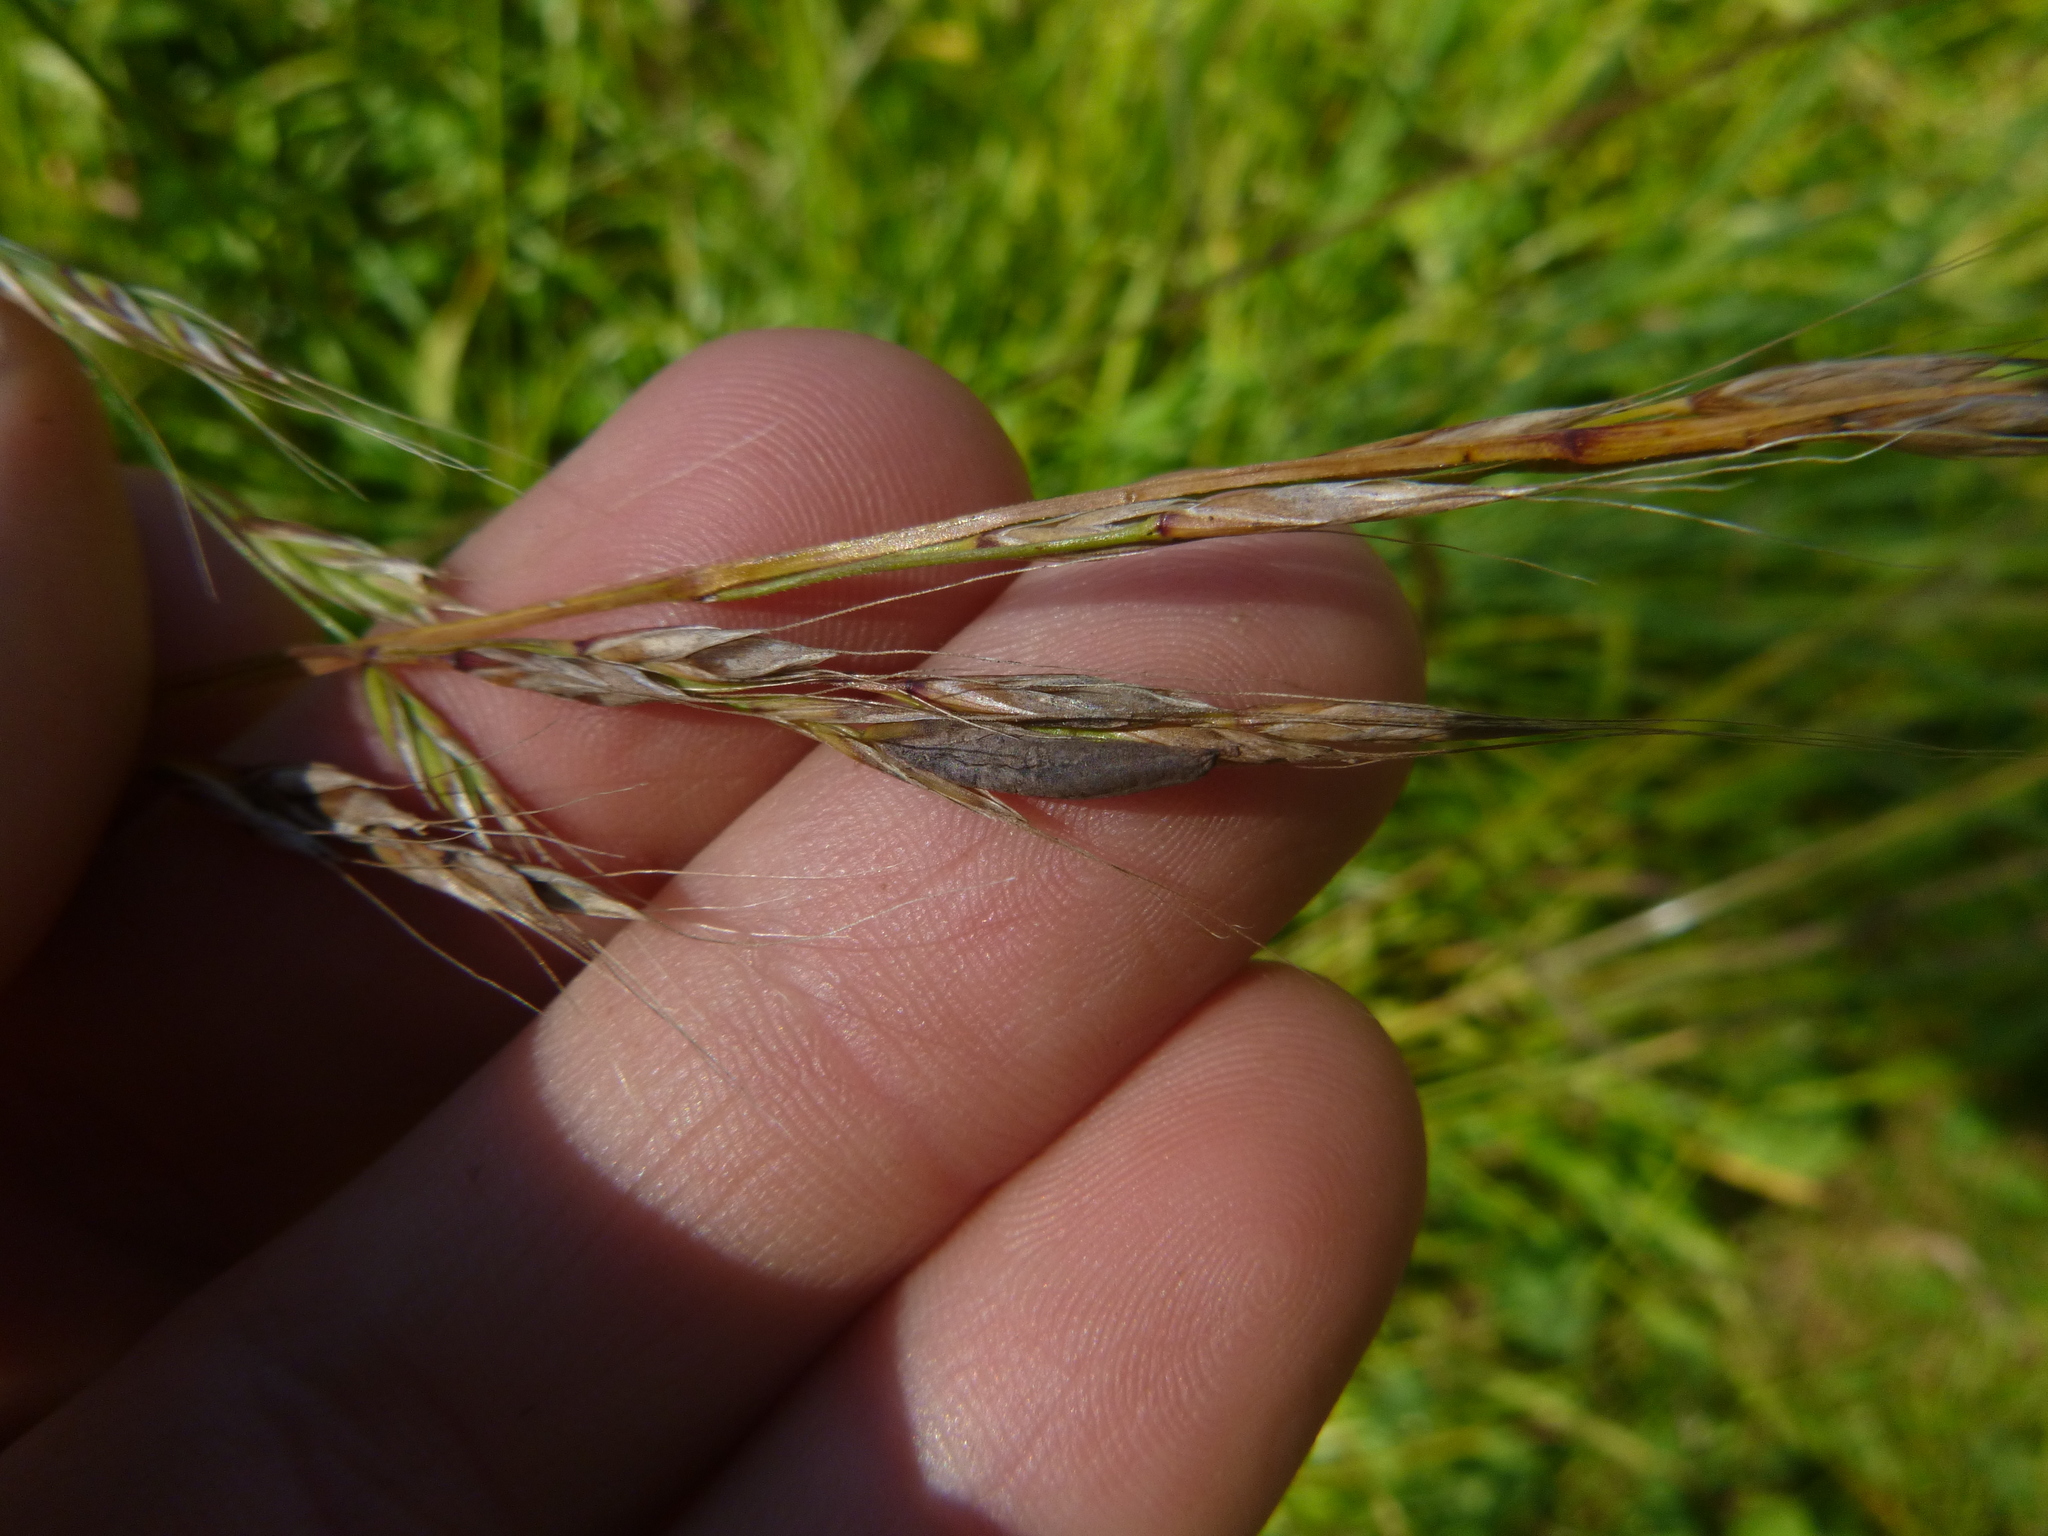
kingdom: Fungi
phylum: Ascomycota
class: Sordariomycetes
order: Hypocreales
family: Clavicipitaceae
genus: Claviceps
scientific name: Claviceps purpurea
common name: Rye ergot
